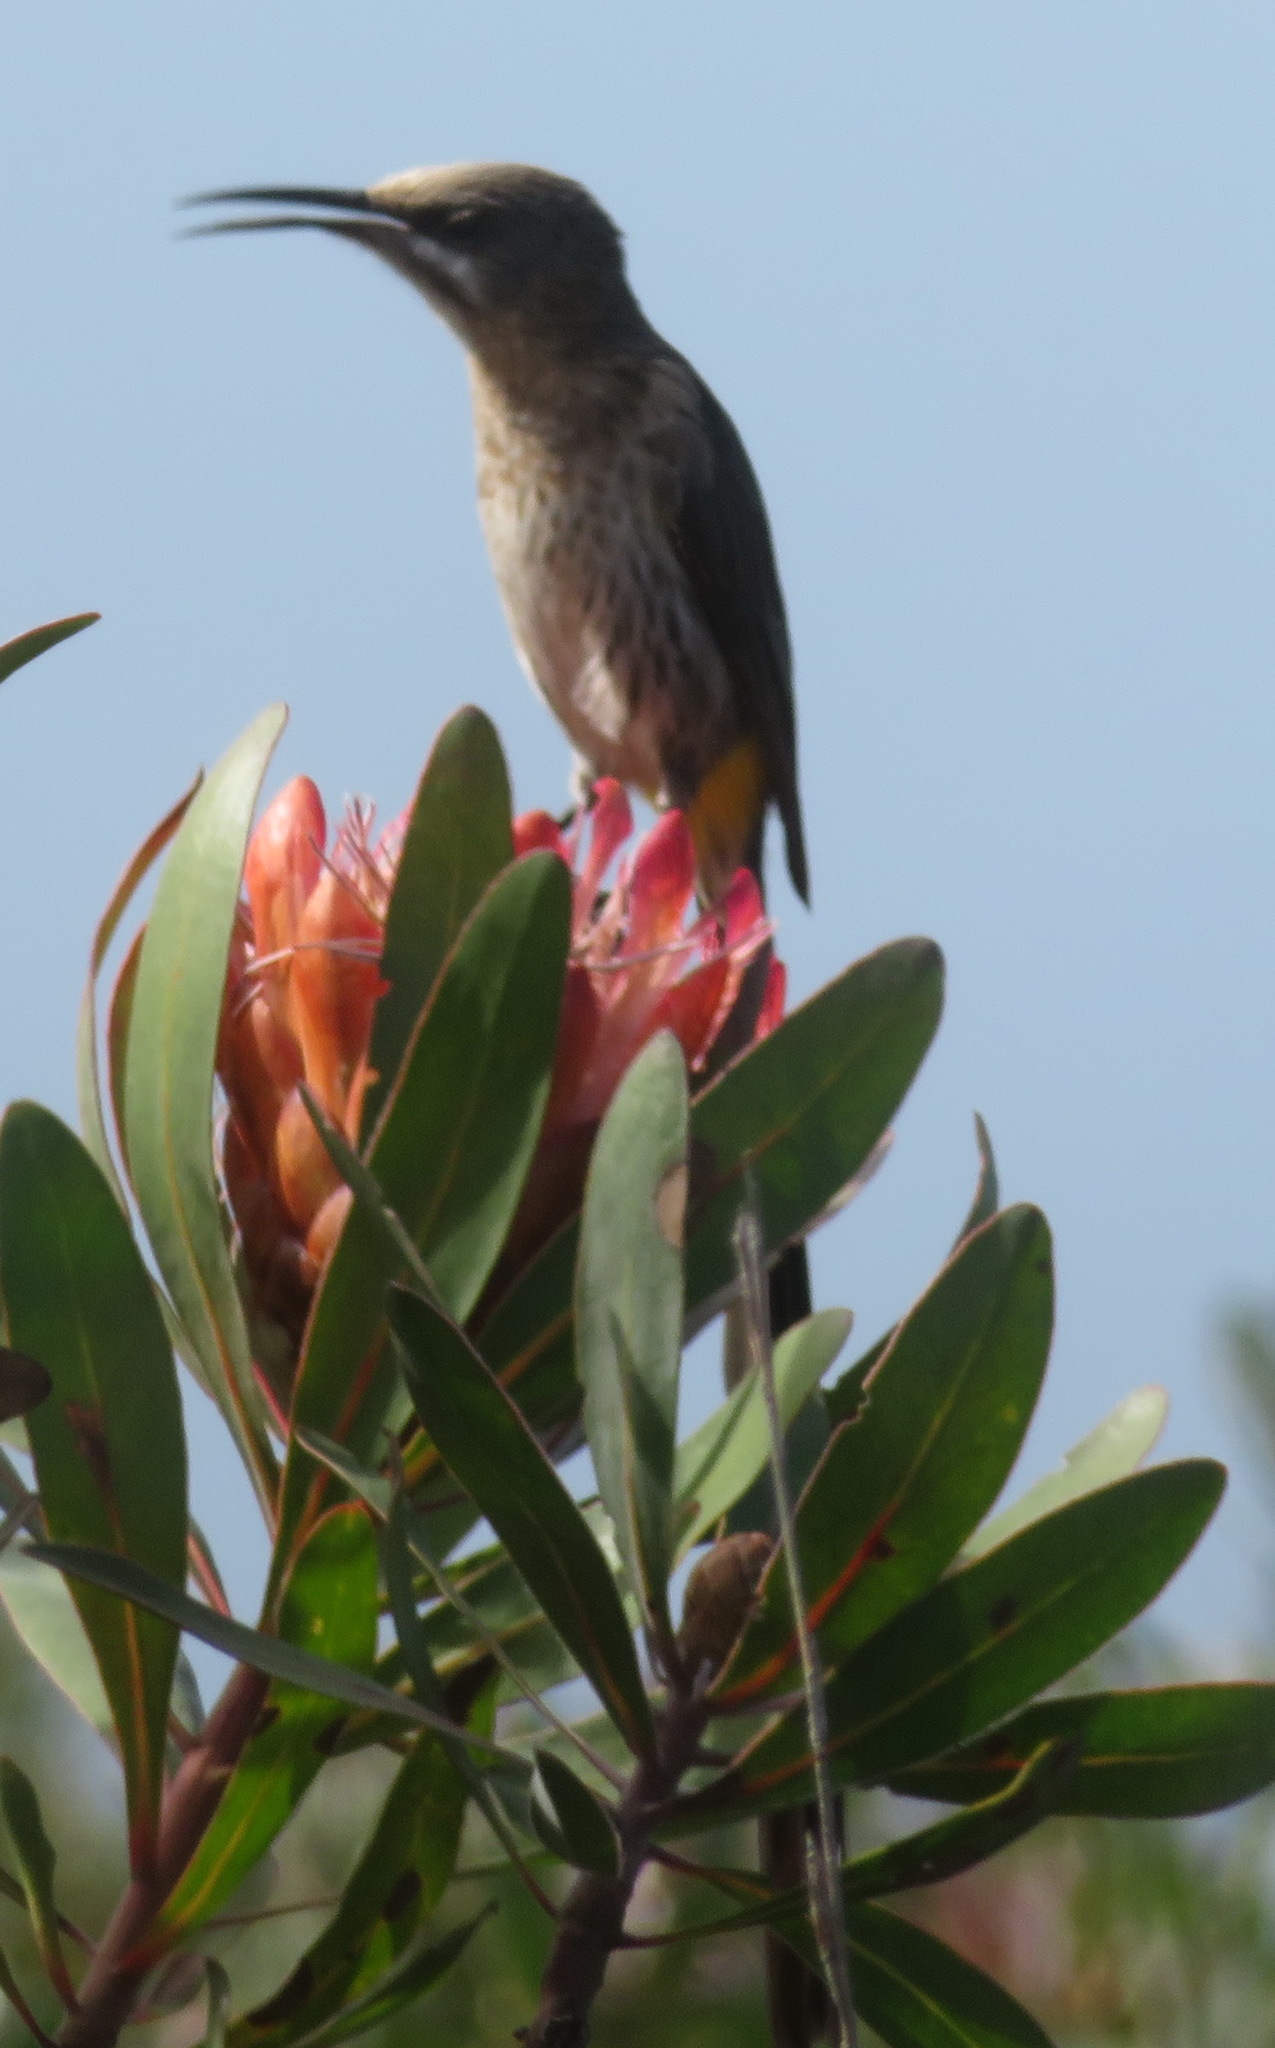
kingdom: Animalia
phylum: Chordata
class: Aves
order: Passeriformes
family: Promeropidae
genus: Promerops
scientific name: Promerops cafer
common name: Cape sugarbird
